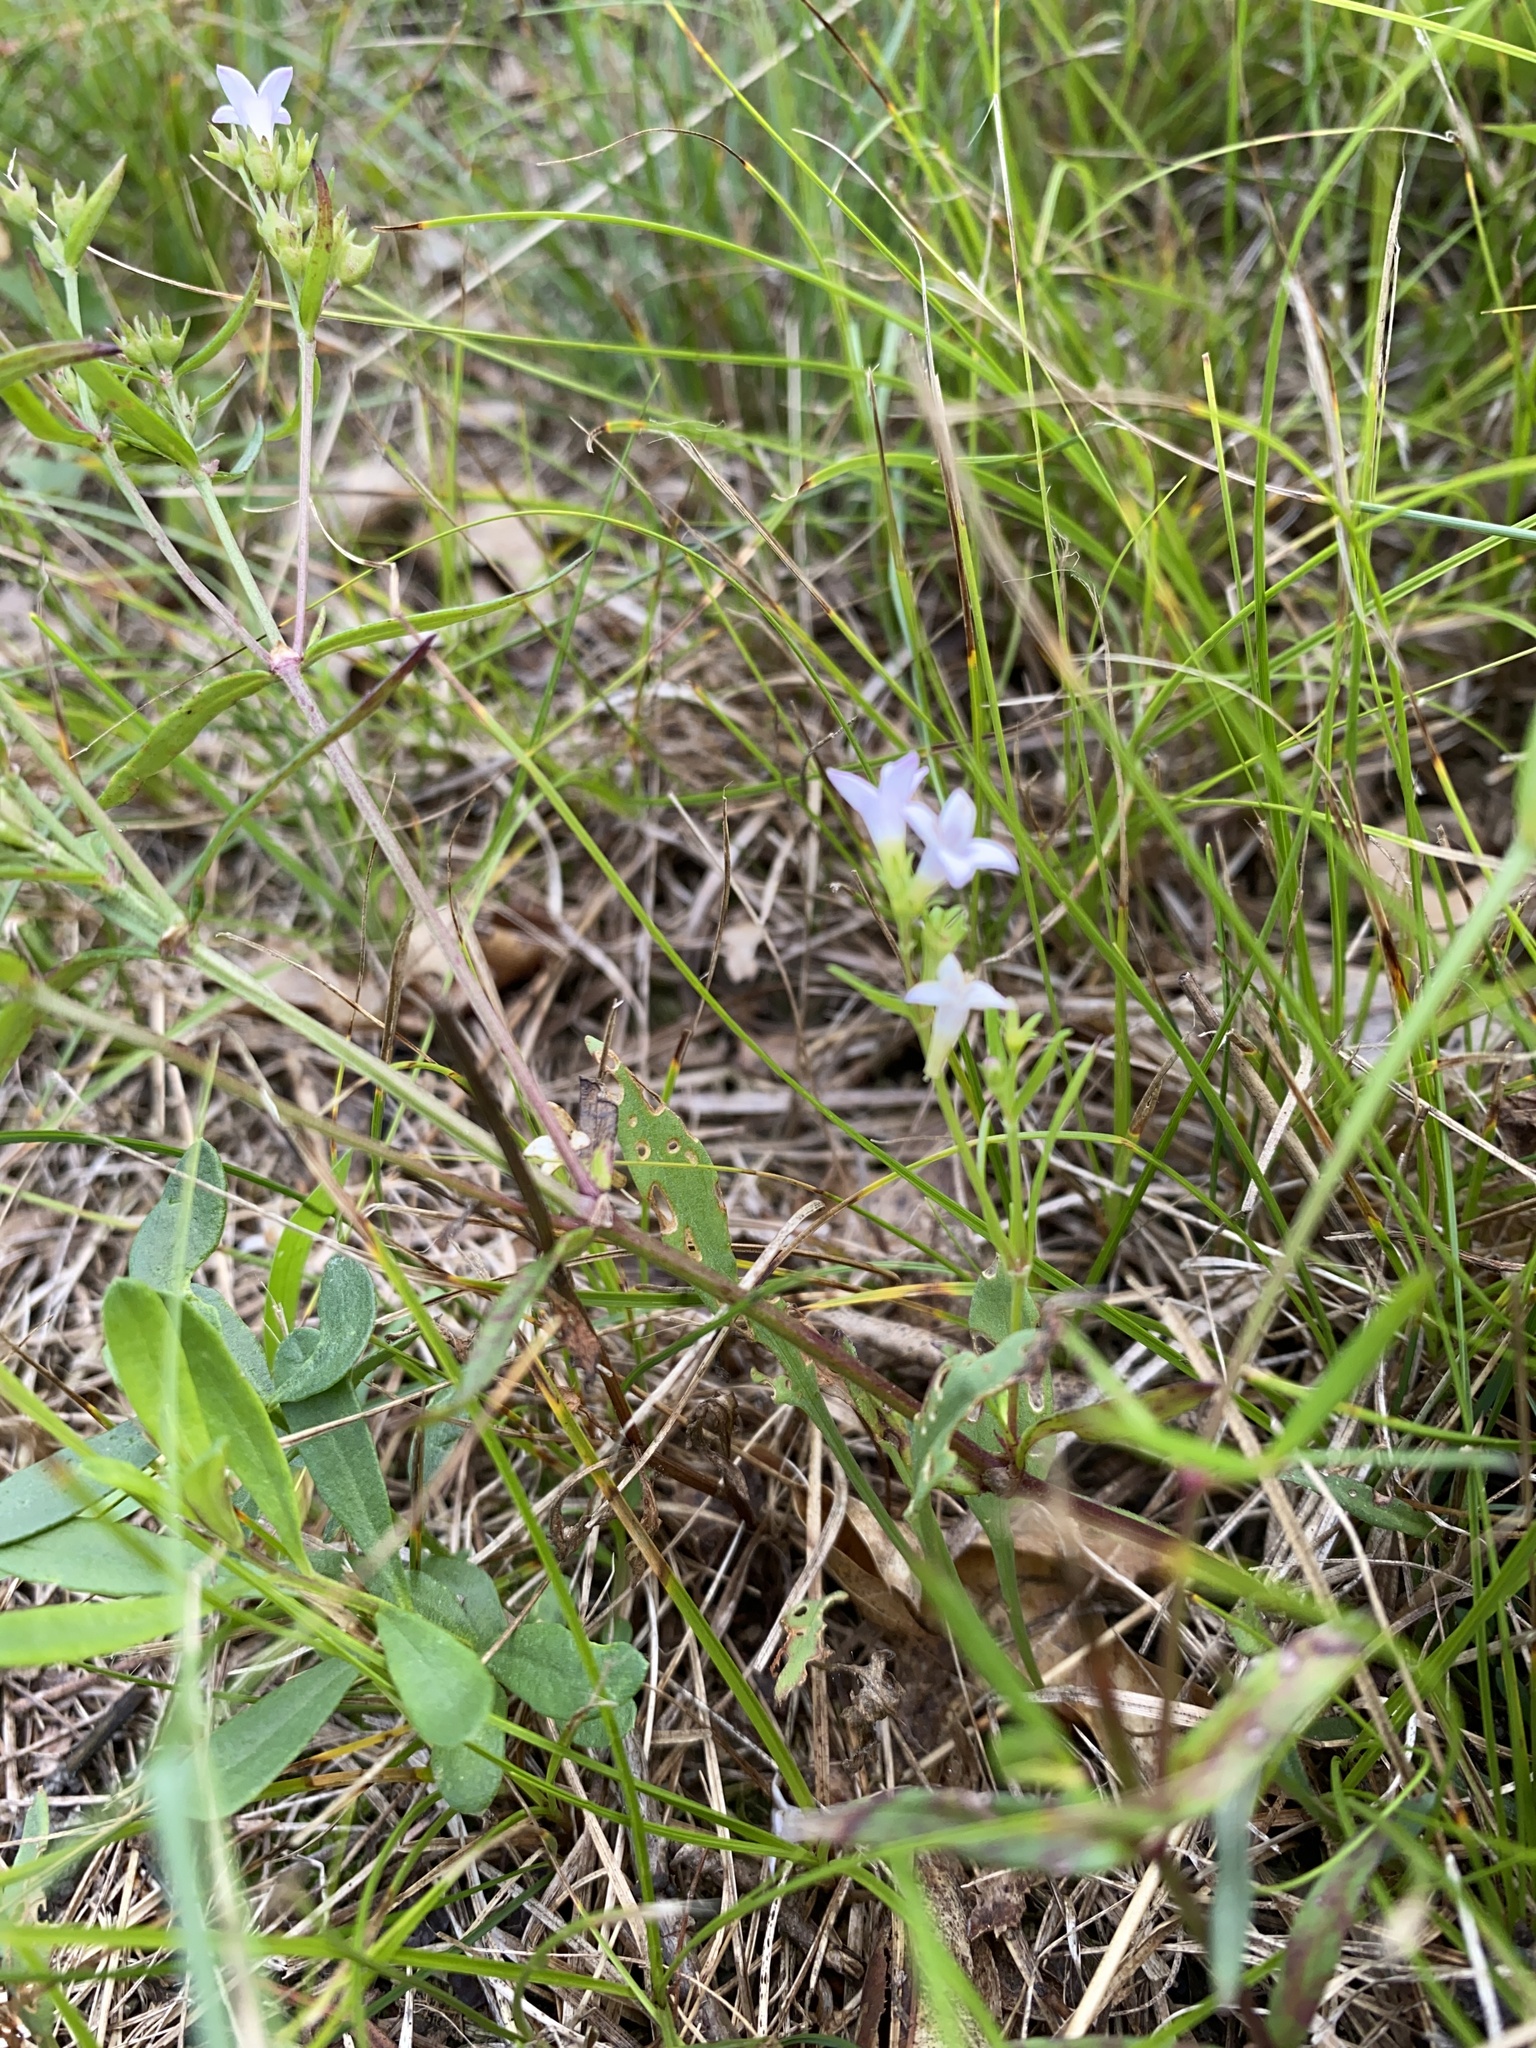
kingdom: Plantae
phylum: Tracheophyta
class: Magnoliopsida
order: Gentianales
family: Rubiaceae
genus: Houstonia
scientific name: Houstonia longifolia
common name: Long-leaved bluets
